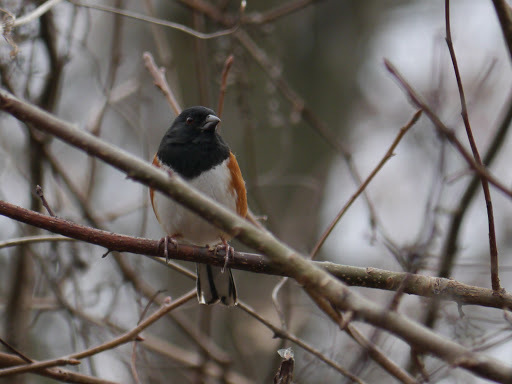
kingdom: Animalia
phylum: Chordata
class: Aves
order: Passeriformes
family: Passerellidae
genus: Pipilo
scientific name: Pipilo erythrophthalmus
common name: Eastern towhee
